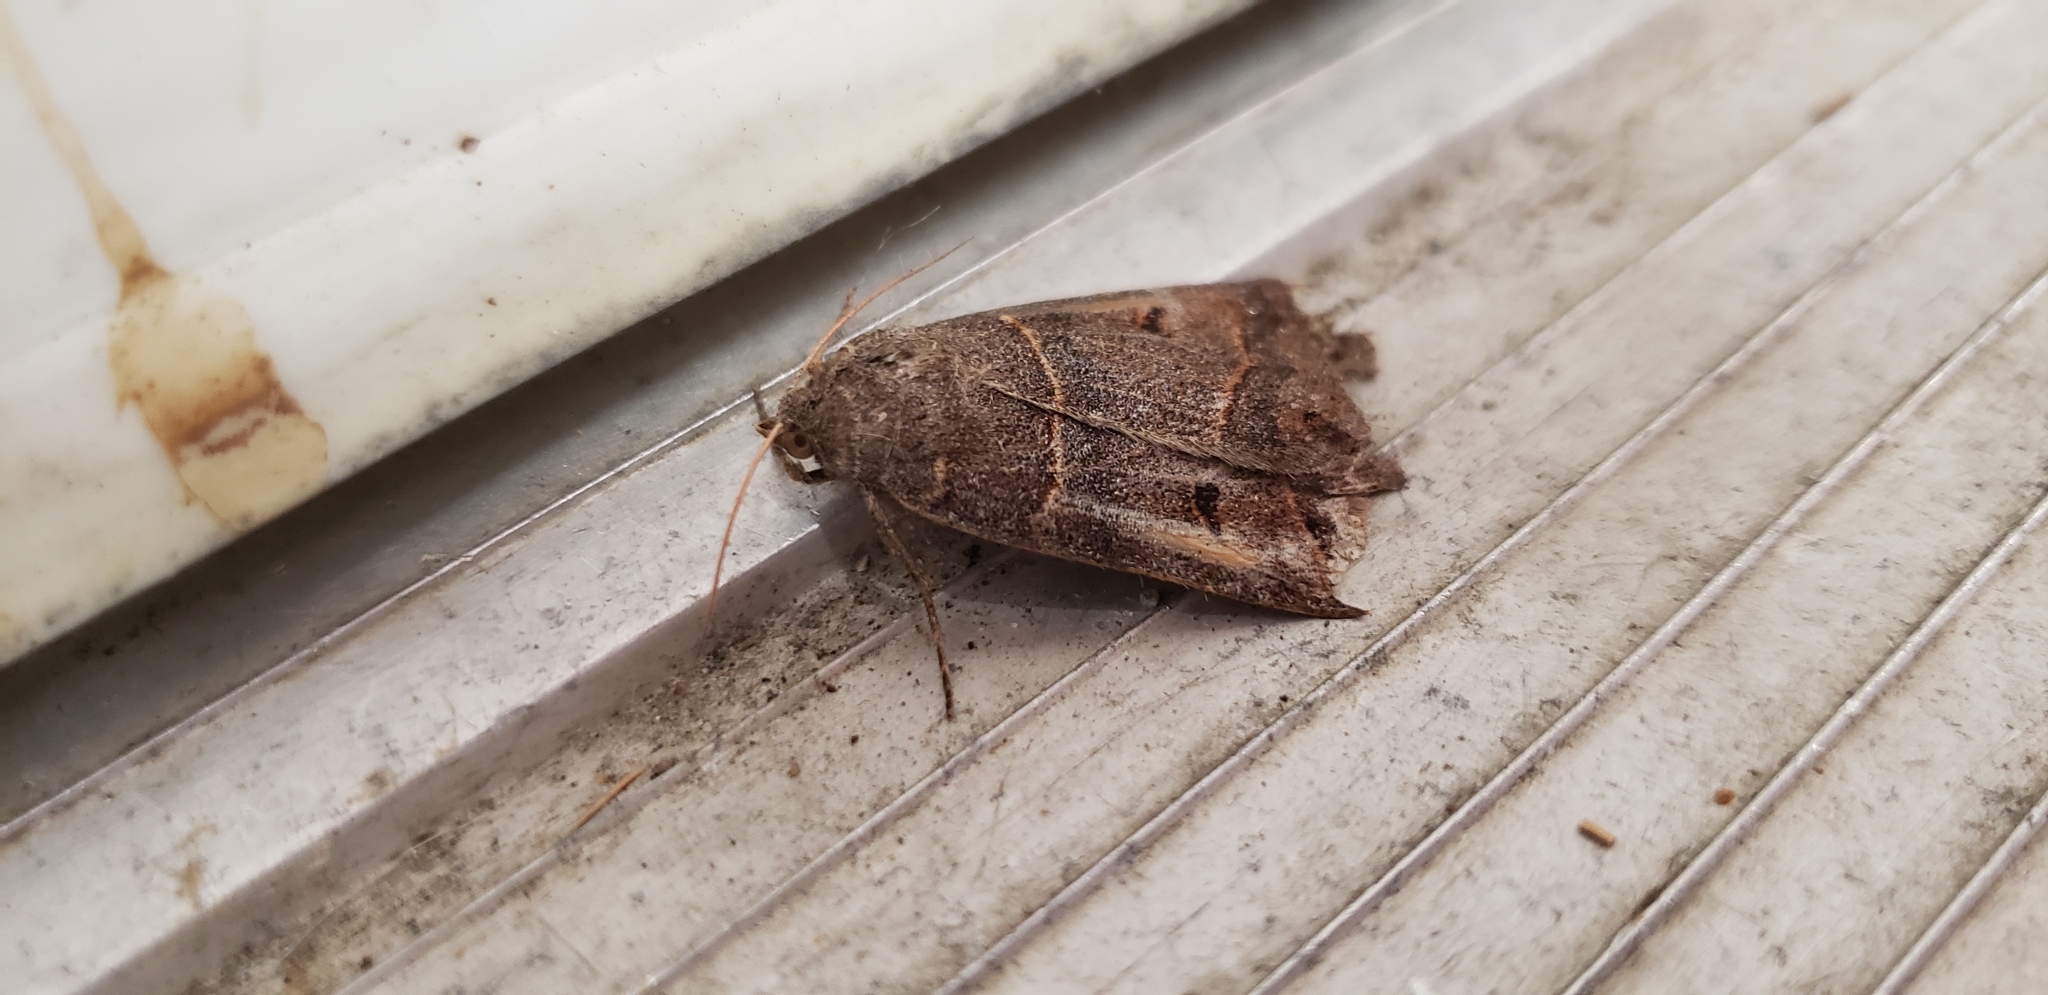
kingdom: Animalia
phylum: Arthropoda
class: Insecta
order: Lepidoptera
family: Erebidae
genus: Phoberia
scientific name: Phoberia atomaris
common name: Common oak moth
